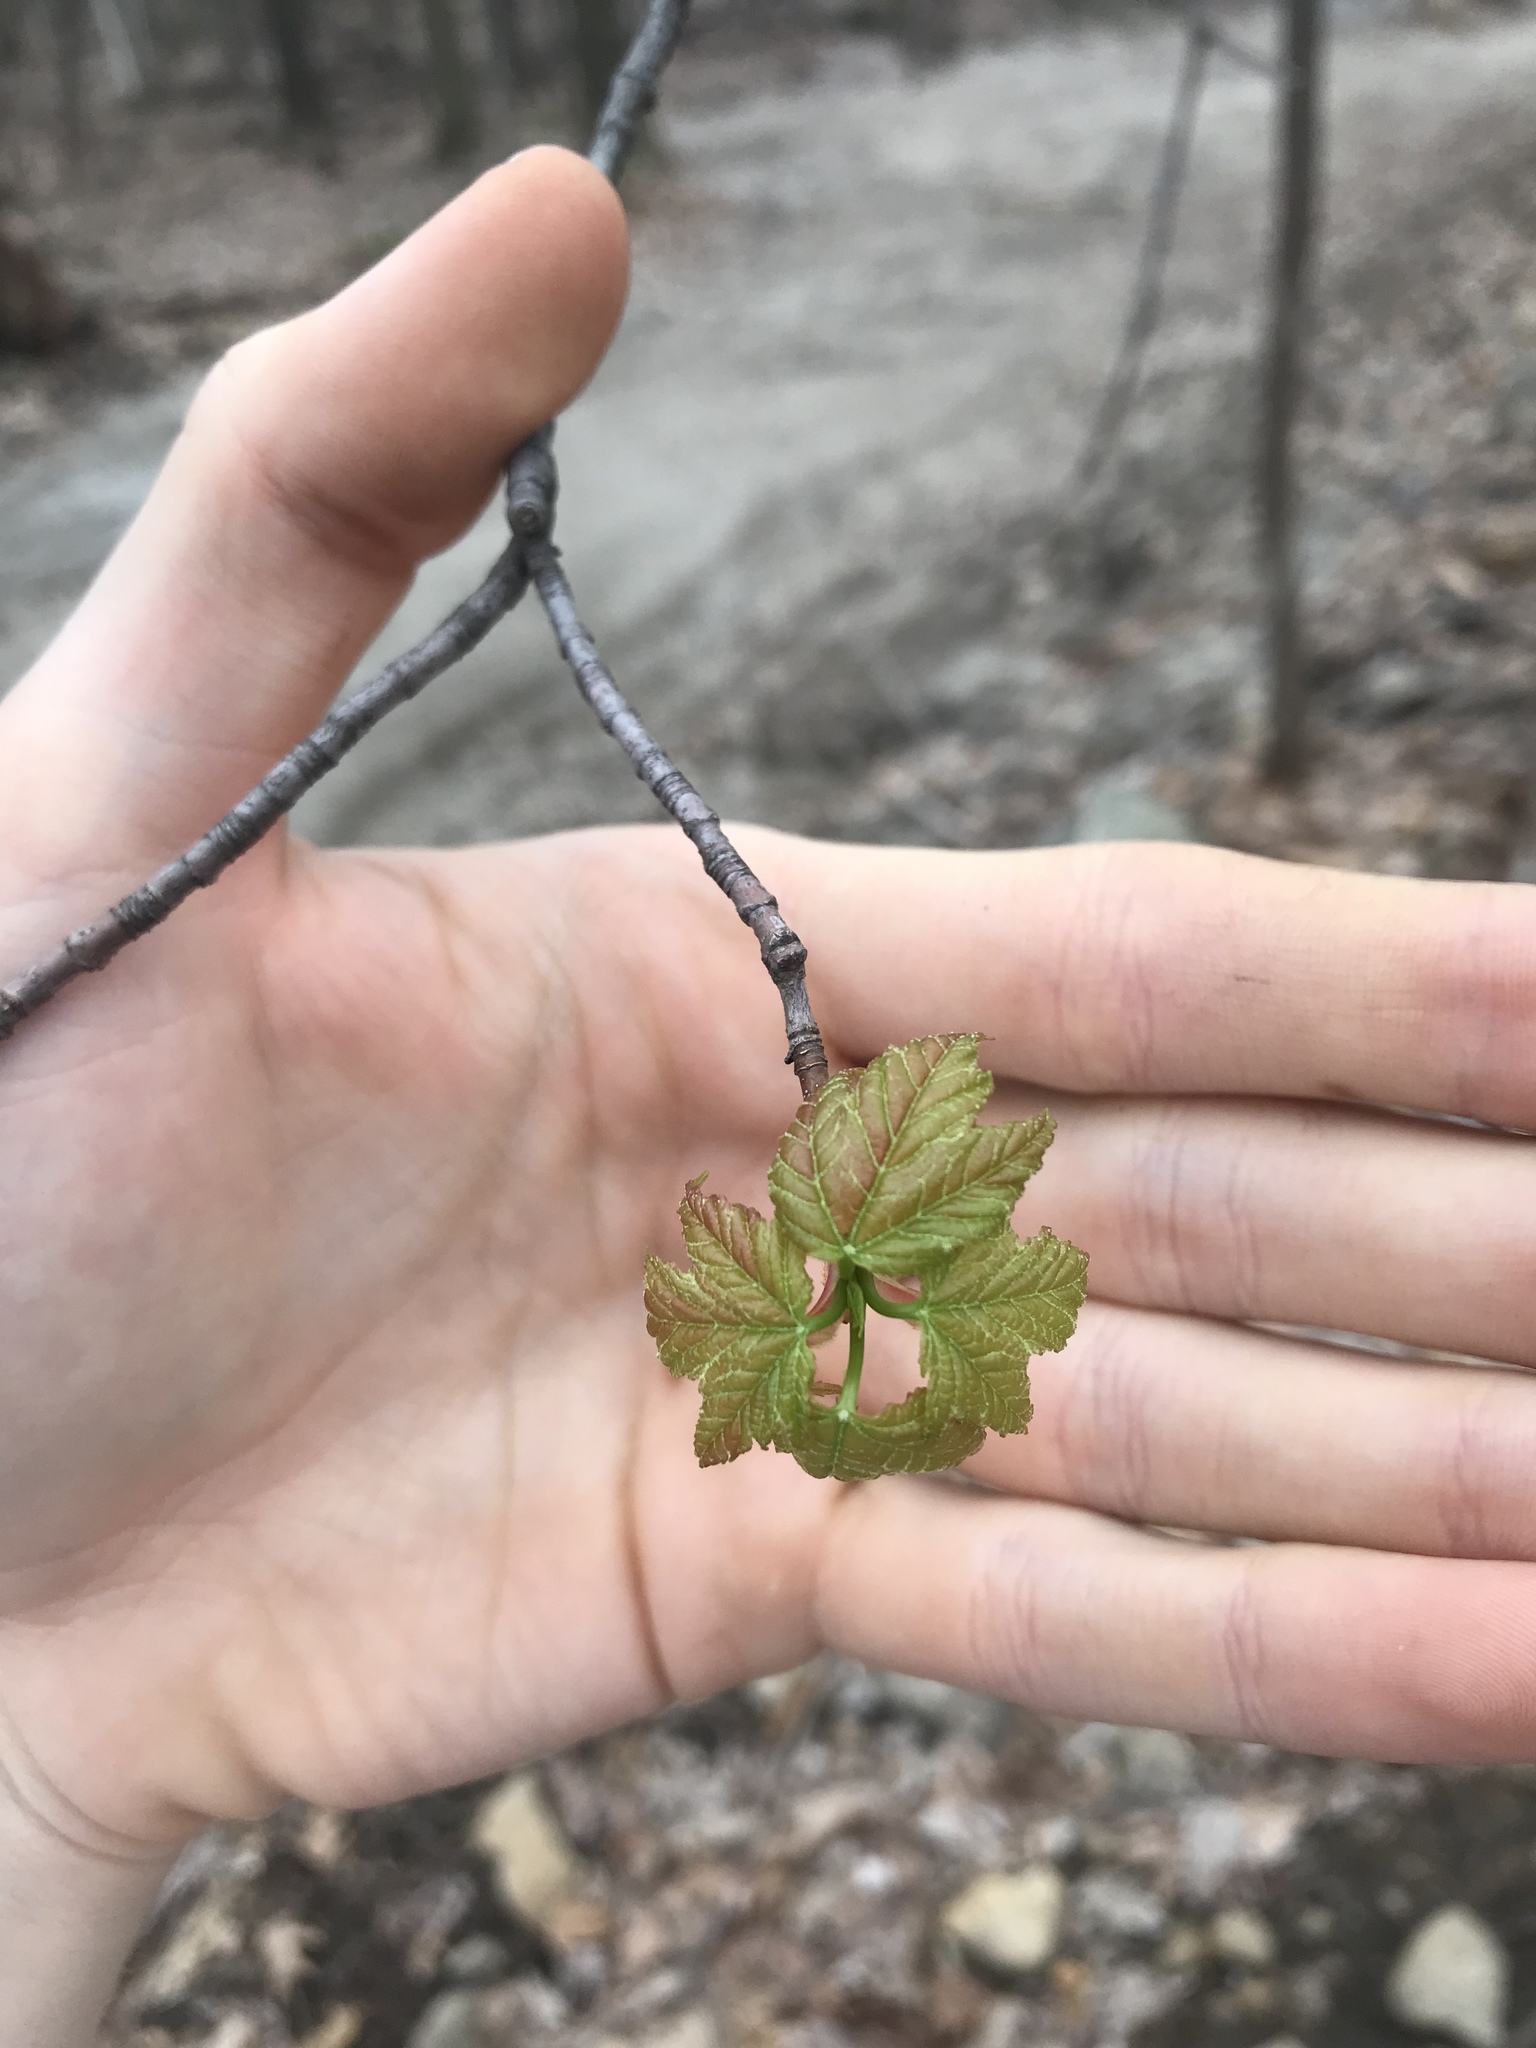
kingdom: Plantae
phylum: Tracheophyta
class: Magnoliopsida
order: Sapindales
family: Sapindaceae
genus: Acer
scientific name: Acer rubrum
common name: Red maple
